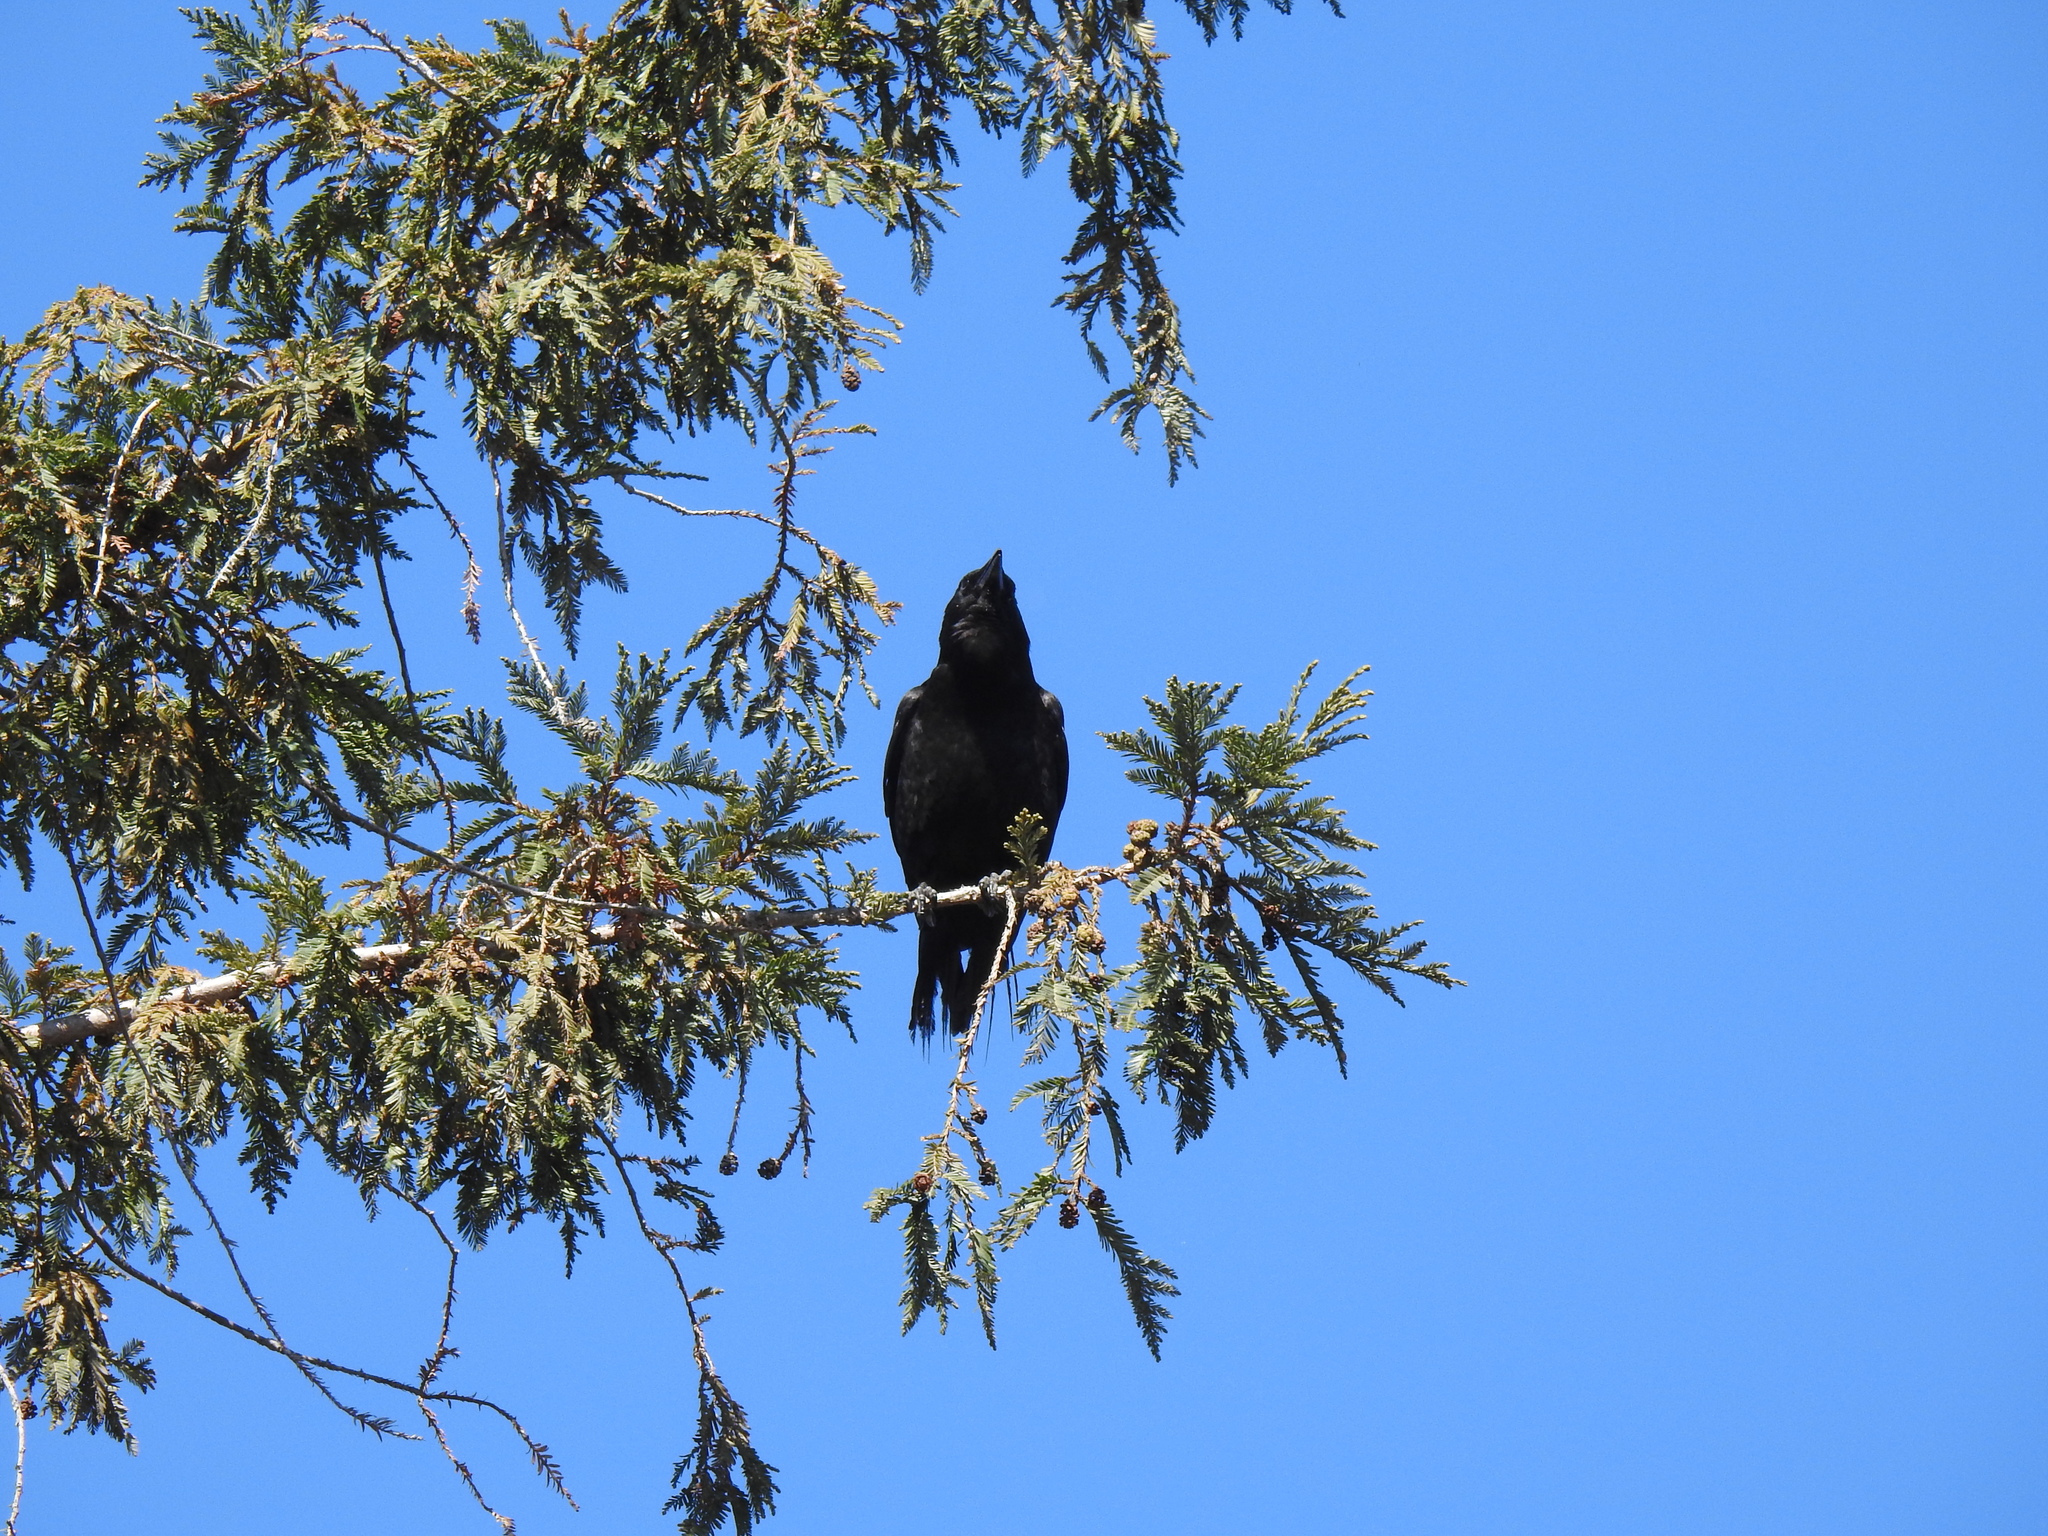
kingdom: Animalia
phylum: Chordata
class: Aves
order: Passeriformes
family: Corvidae
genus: Corvus
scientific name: Corvus brachyrhynchos
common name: American crow
